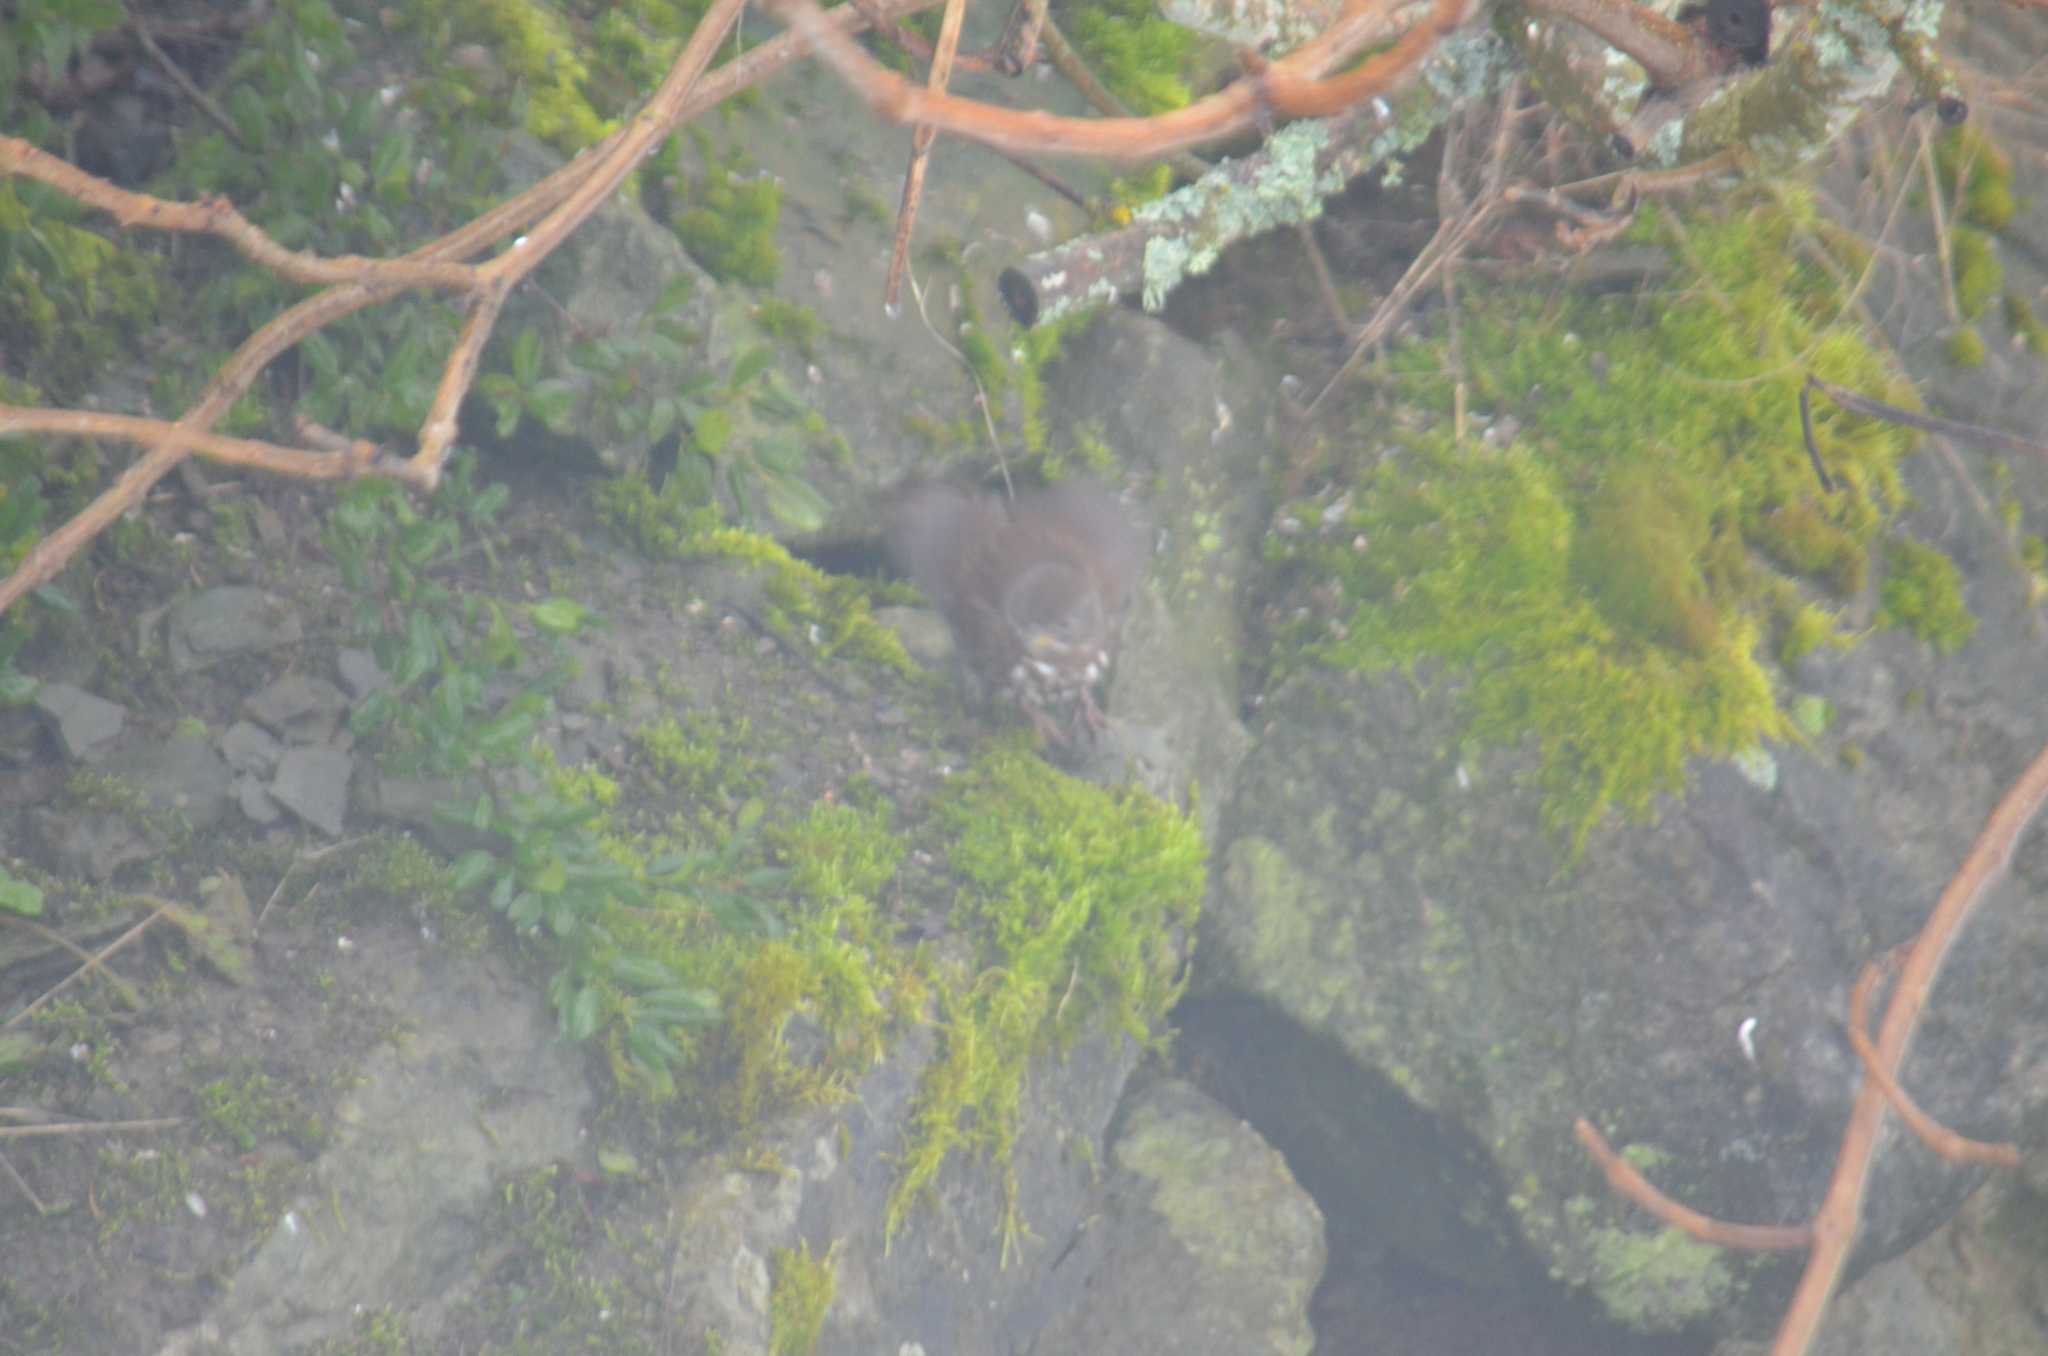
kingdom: Animalia
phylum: Chordata
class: Aves
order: Passeriformes
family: Passerellidae
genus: Passerella
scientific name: Passerella iliaca
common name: Fox sparrow
